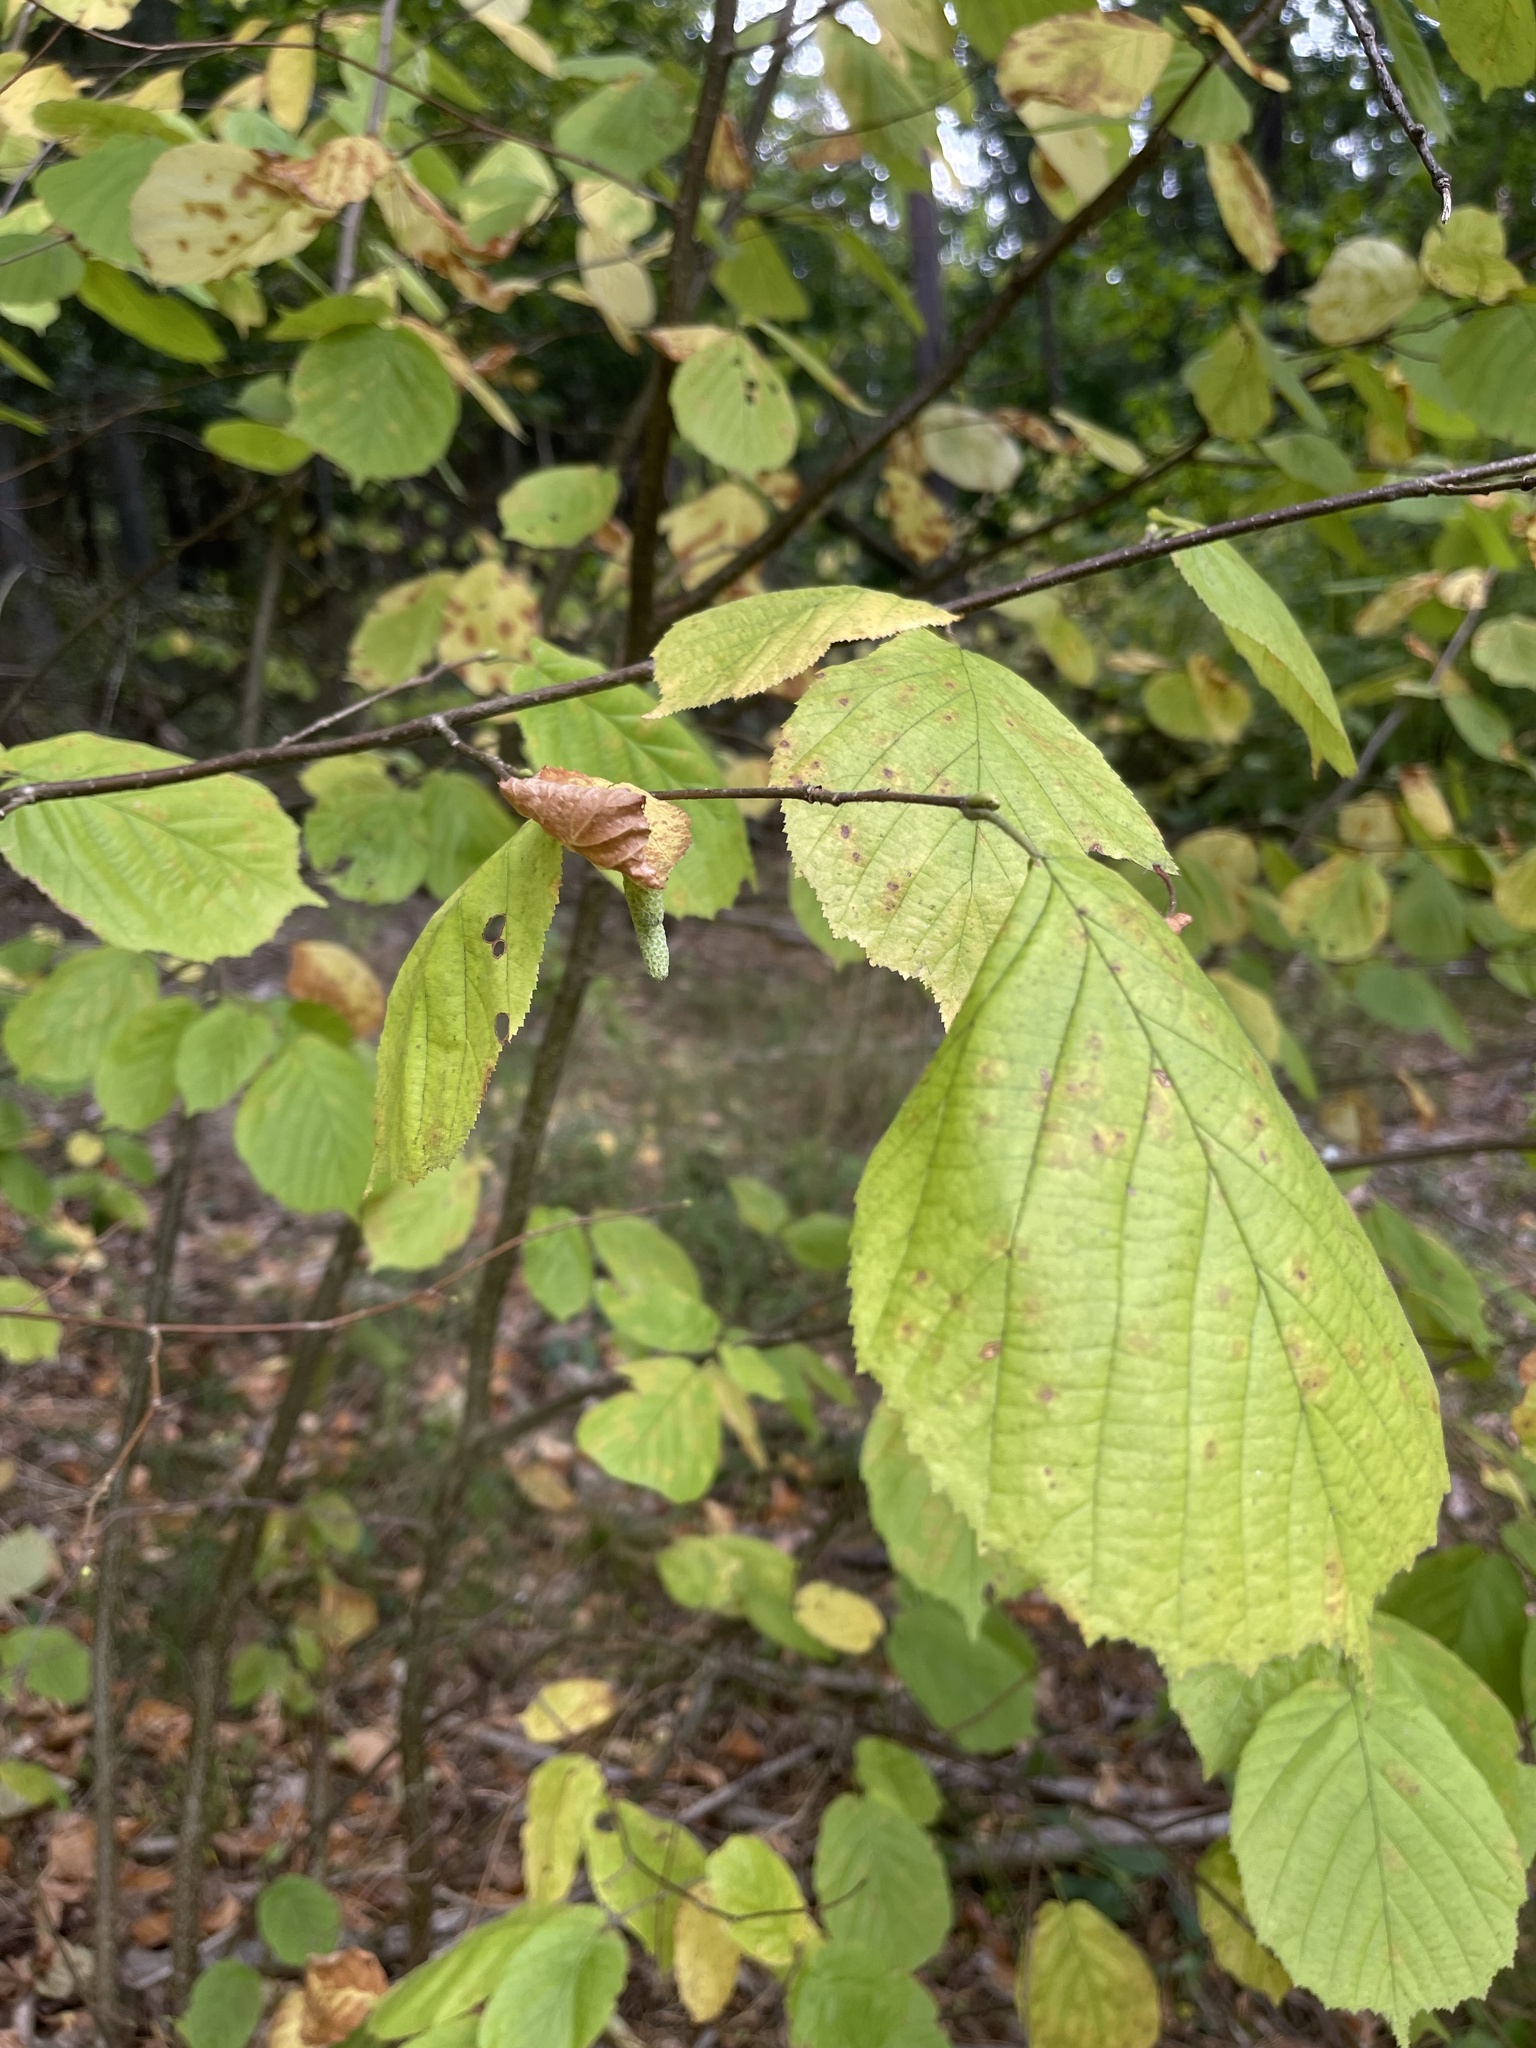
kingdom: Plantae
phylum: Tracheophyta
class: Magnoliopsida
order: Fagales
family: Betulaceae
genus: Corylus
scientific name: Corylus avellana
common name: European hazel
